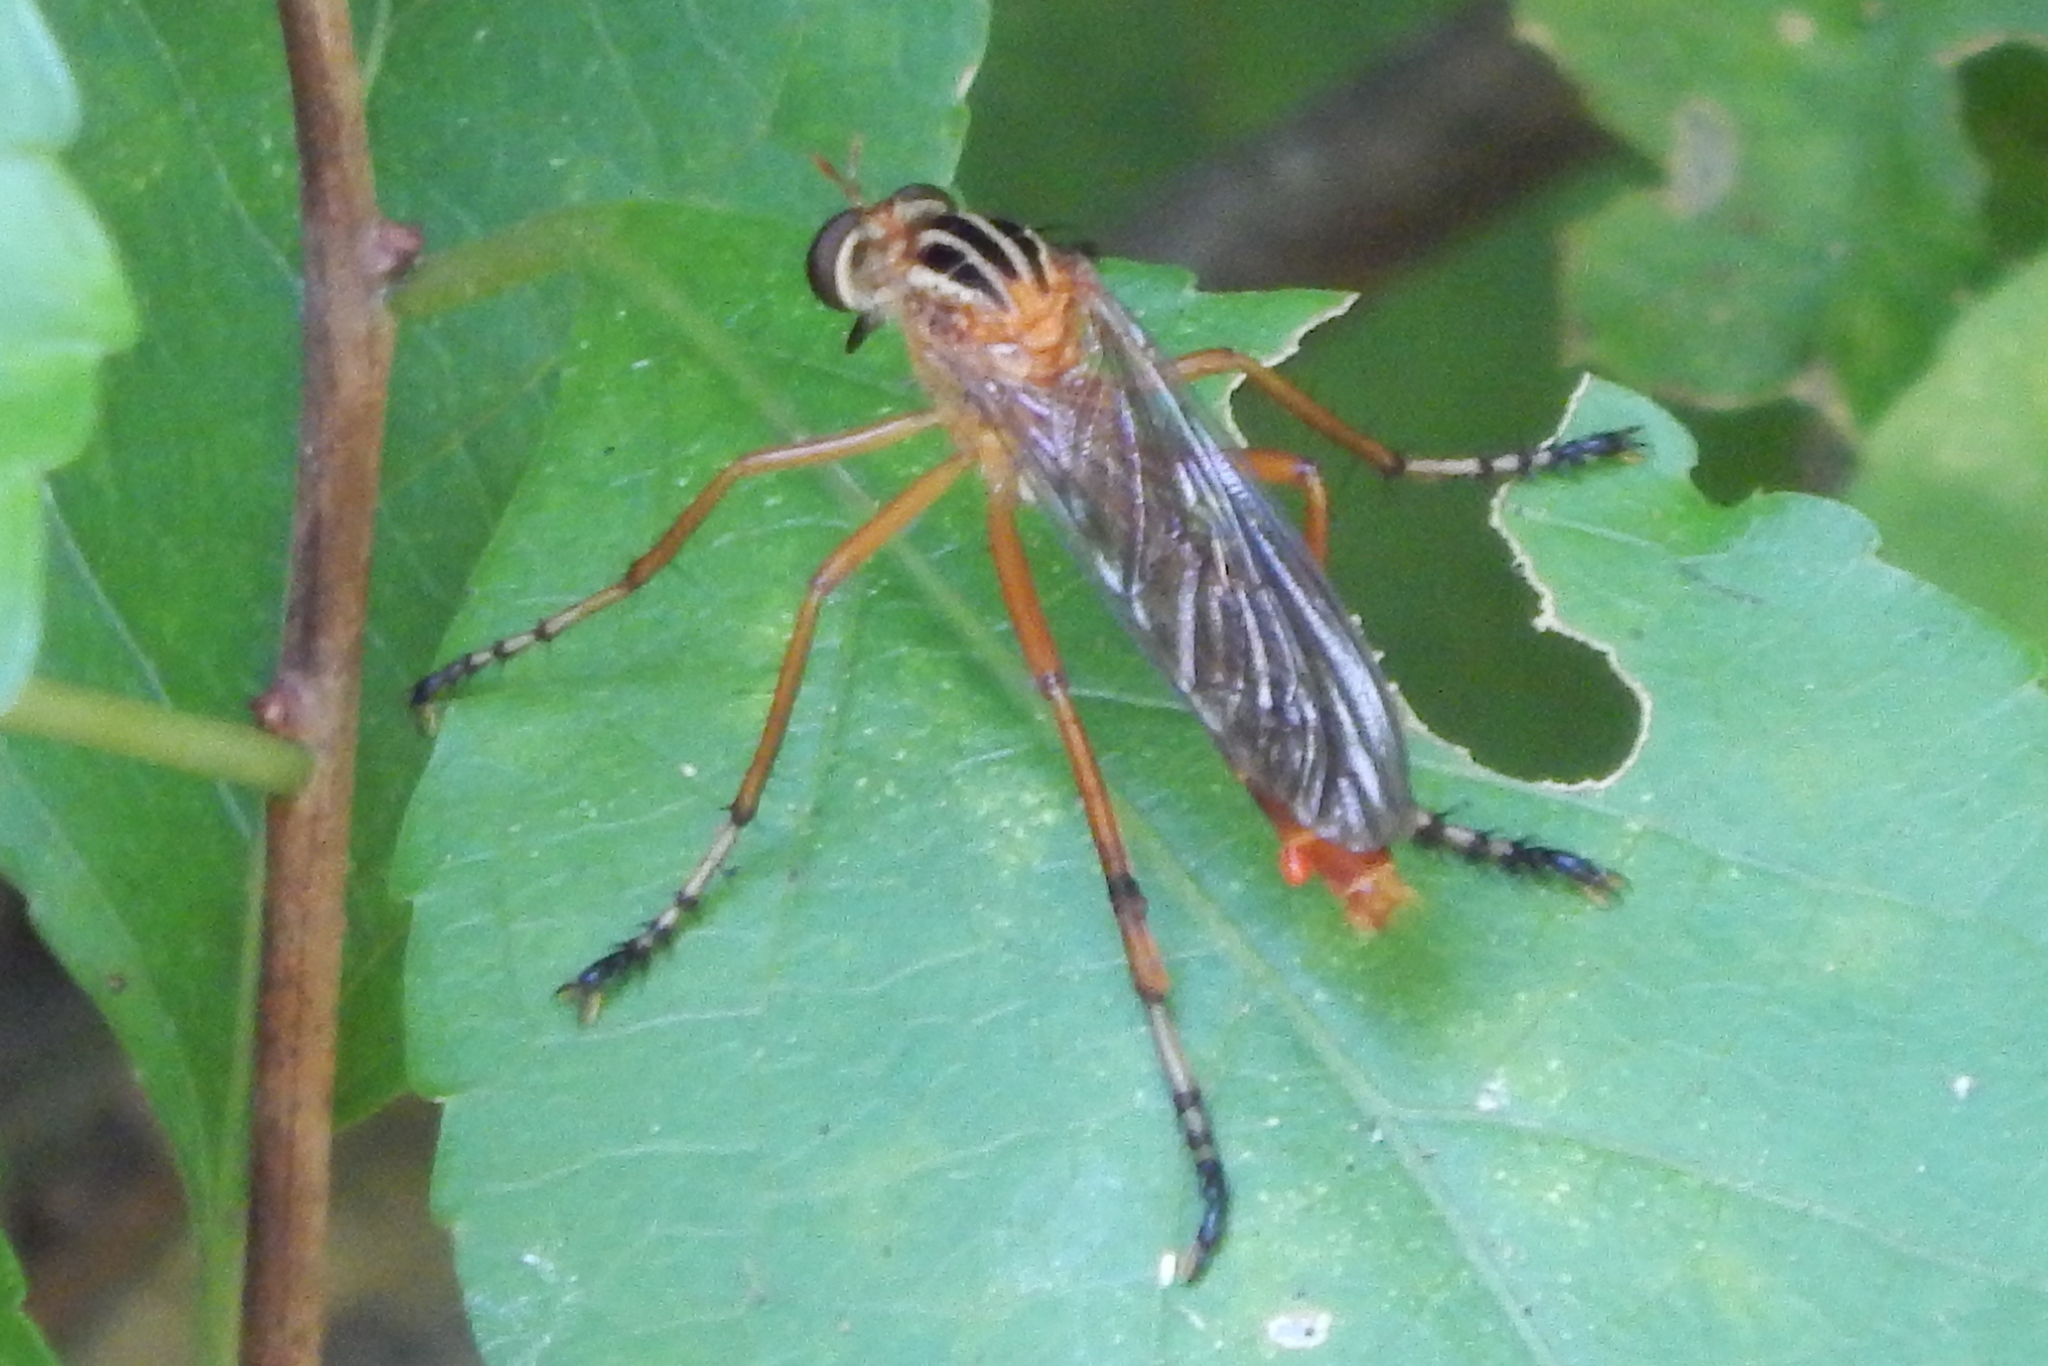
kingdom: Animalia
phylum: Arthropoda
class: Insecta
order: Diptera
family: Asilidae
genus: Diogmites
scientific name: Diogmites
